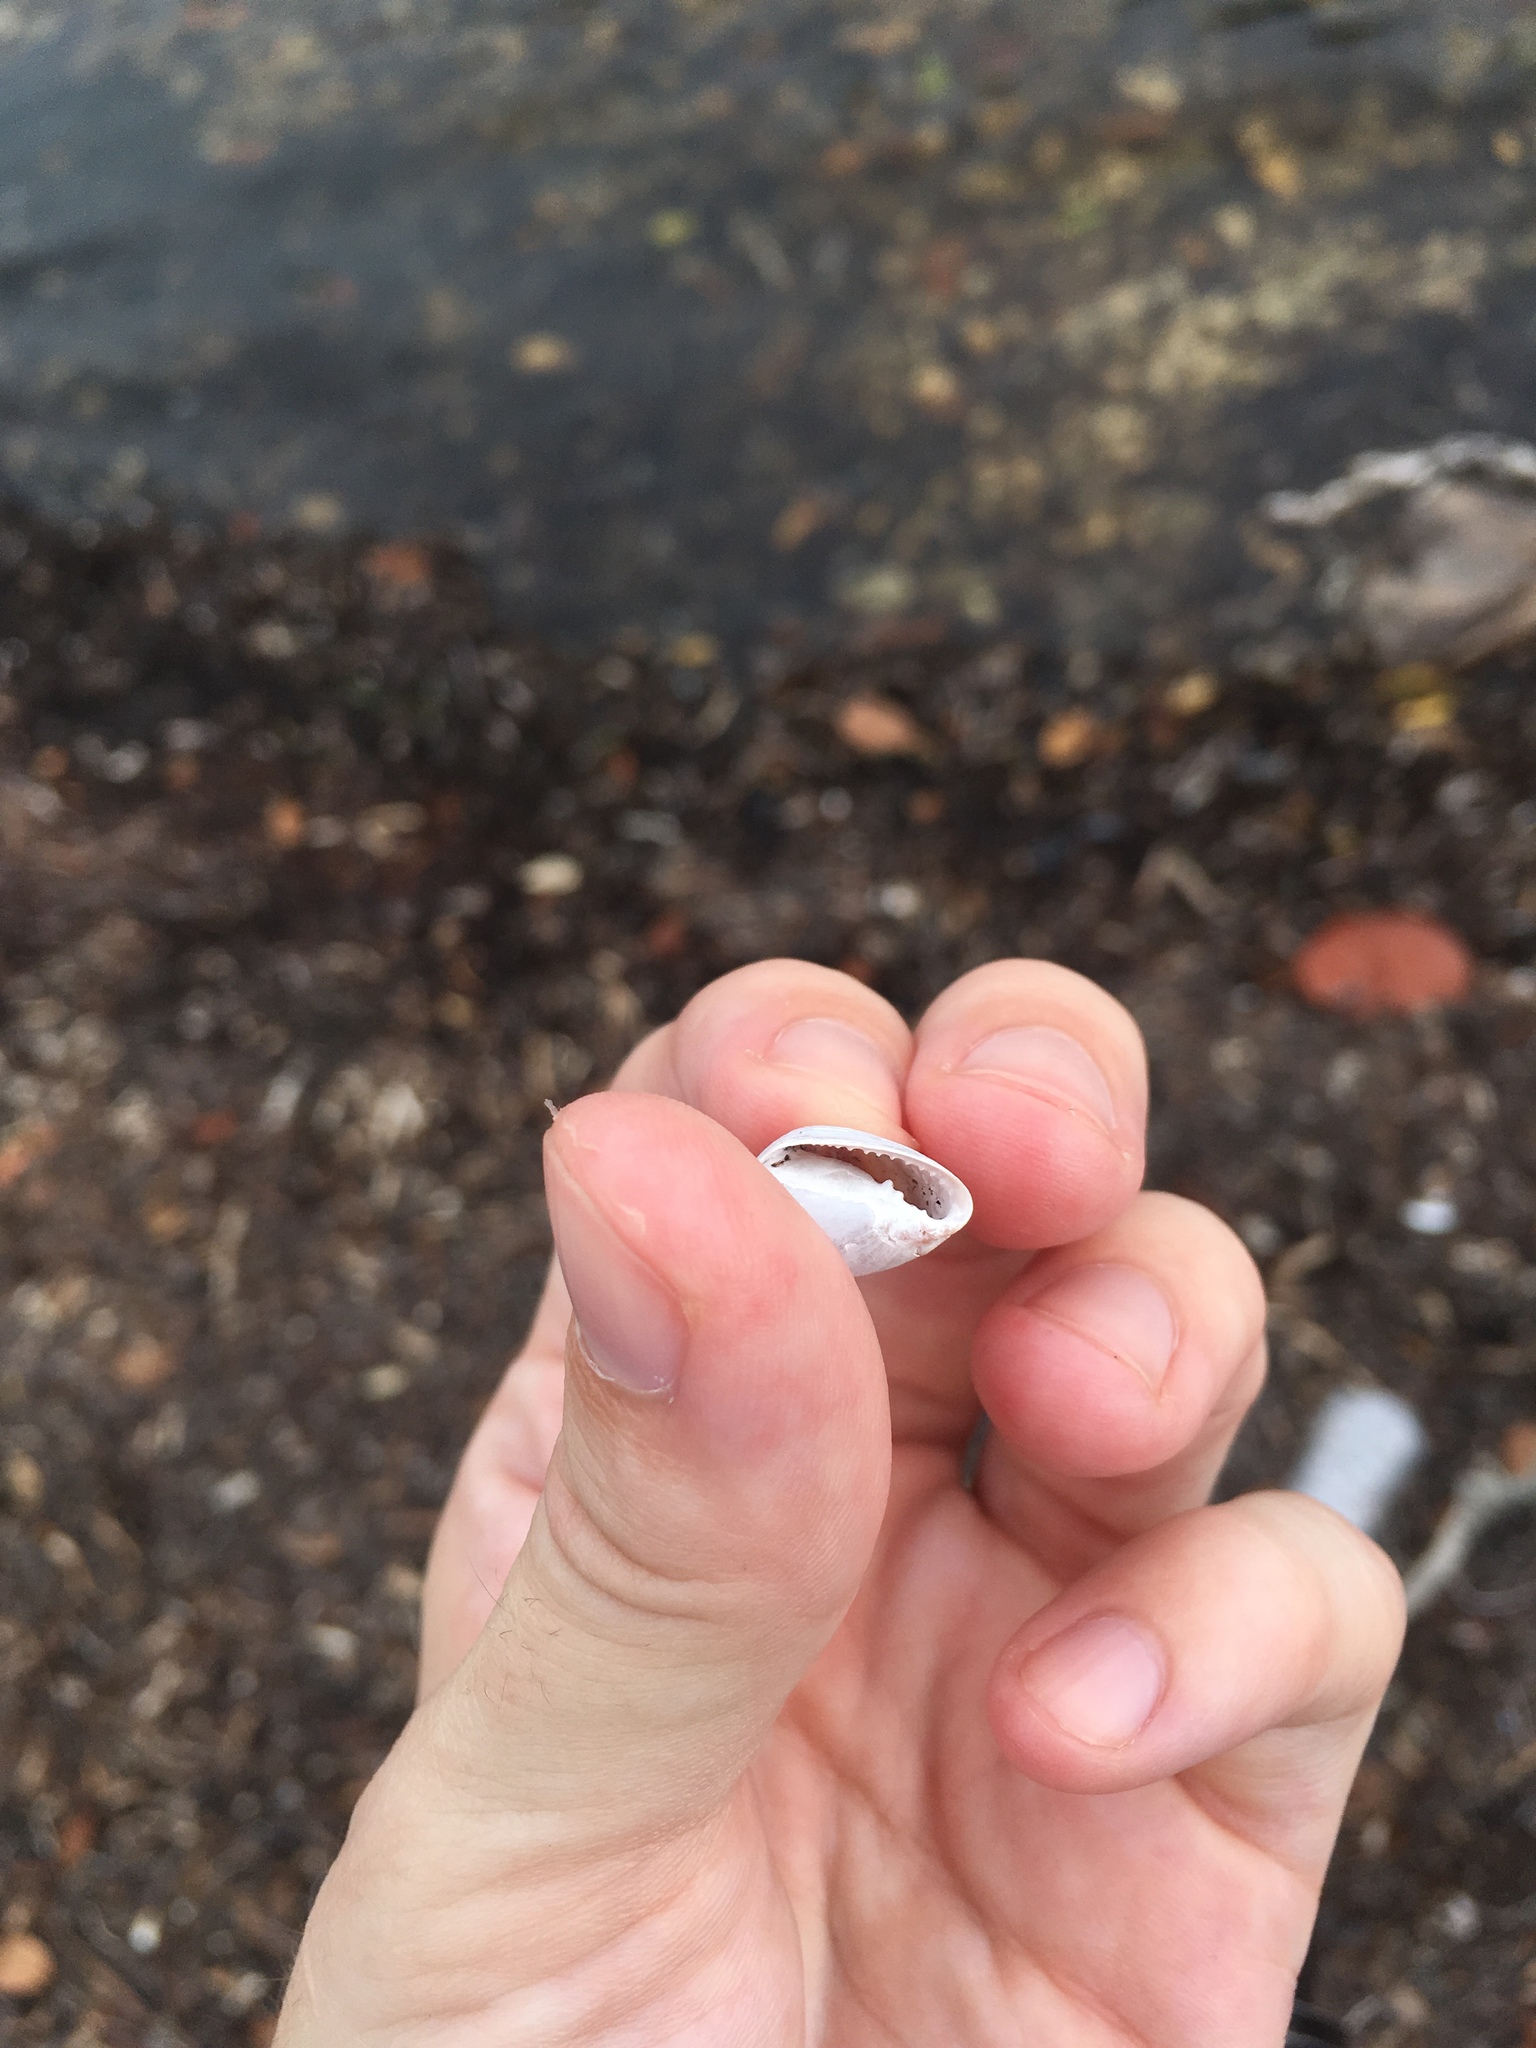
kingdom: Animalia
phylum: Mollusca
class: Gastropoda
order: Ellobiida
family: Ellobiidae
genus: Melampus
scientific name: Melampus coffea
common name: Coffee bean snail
